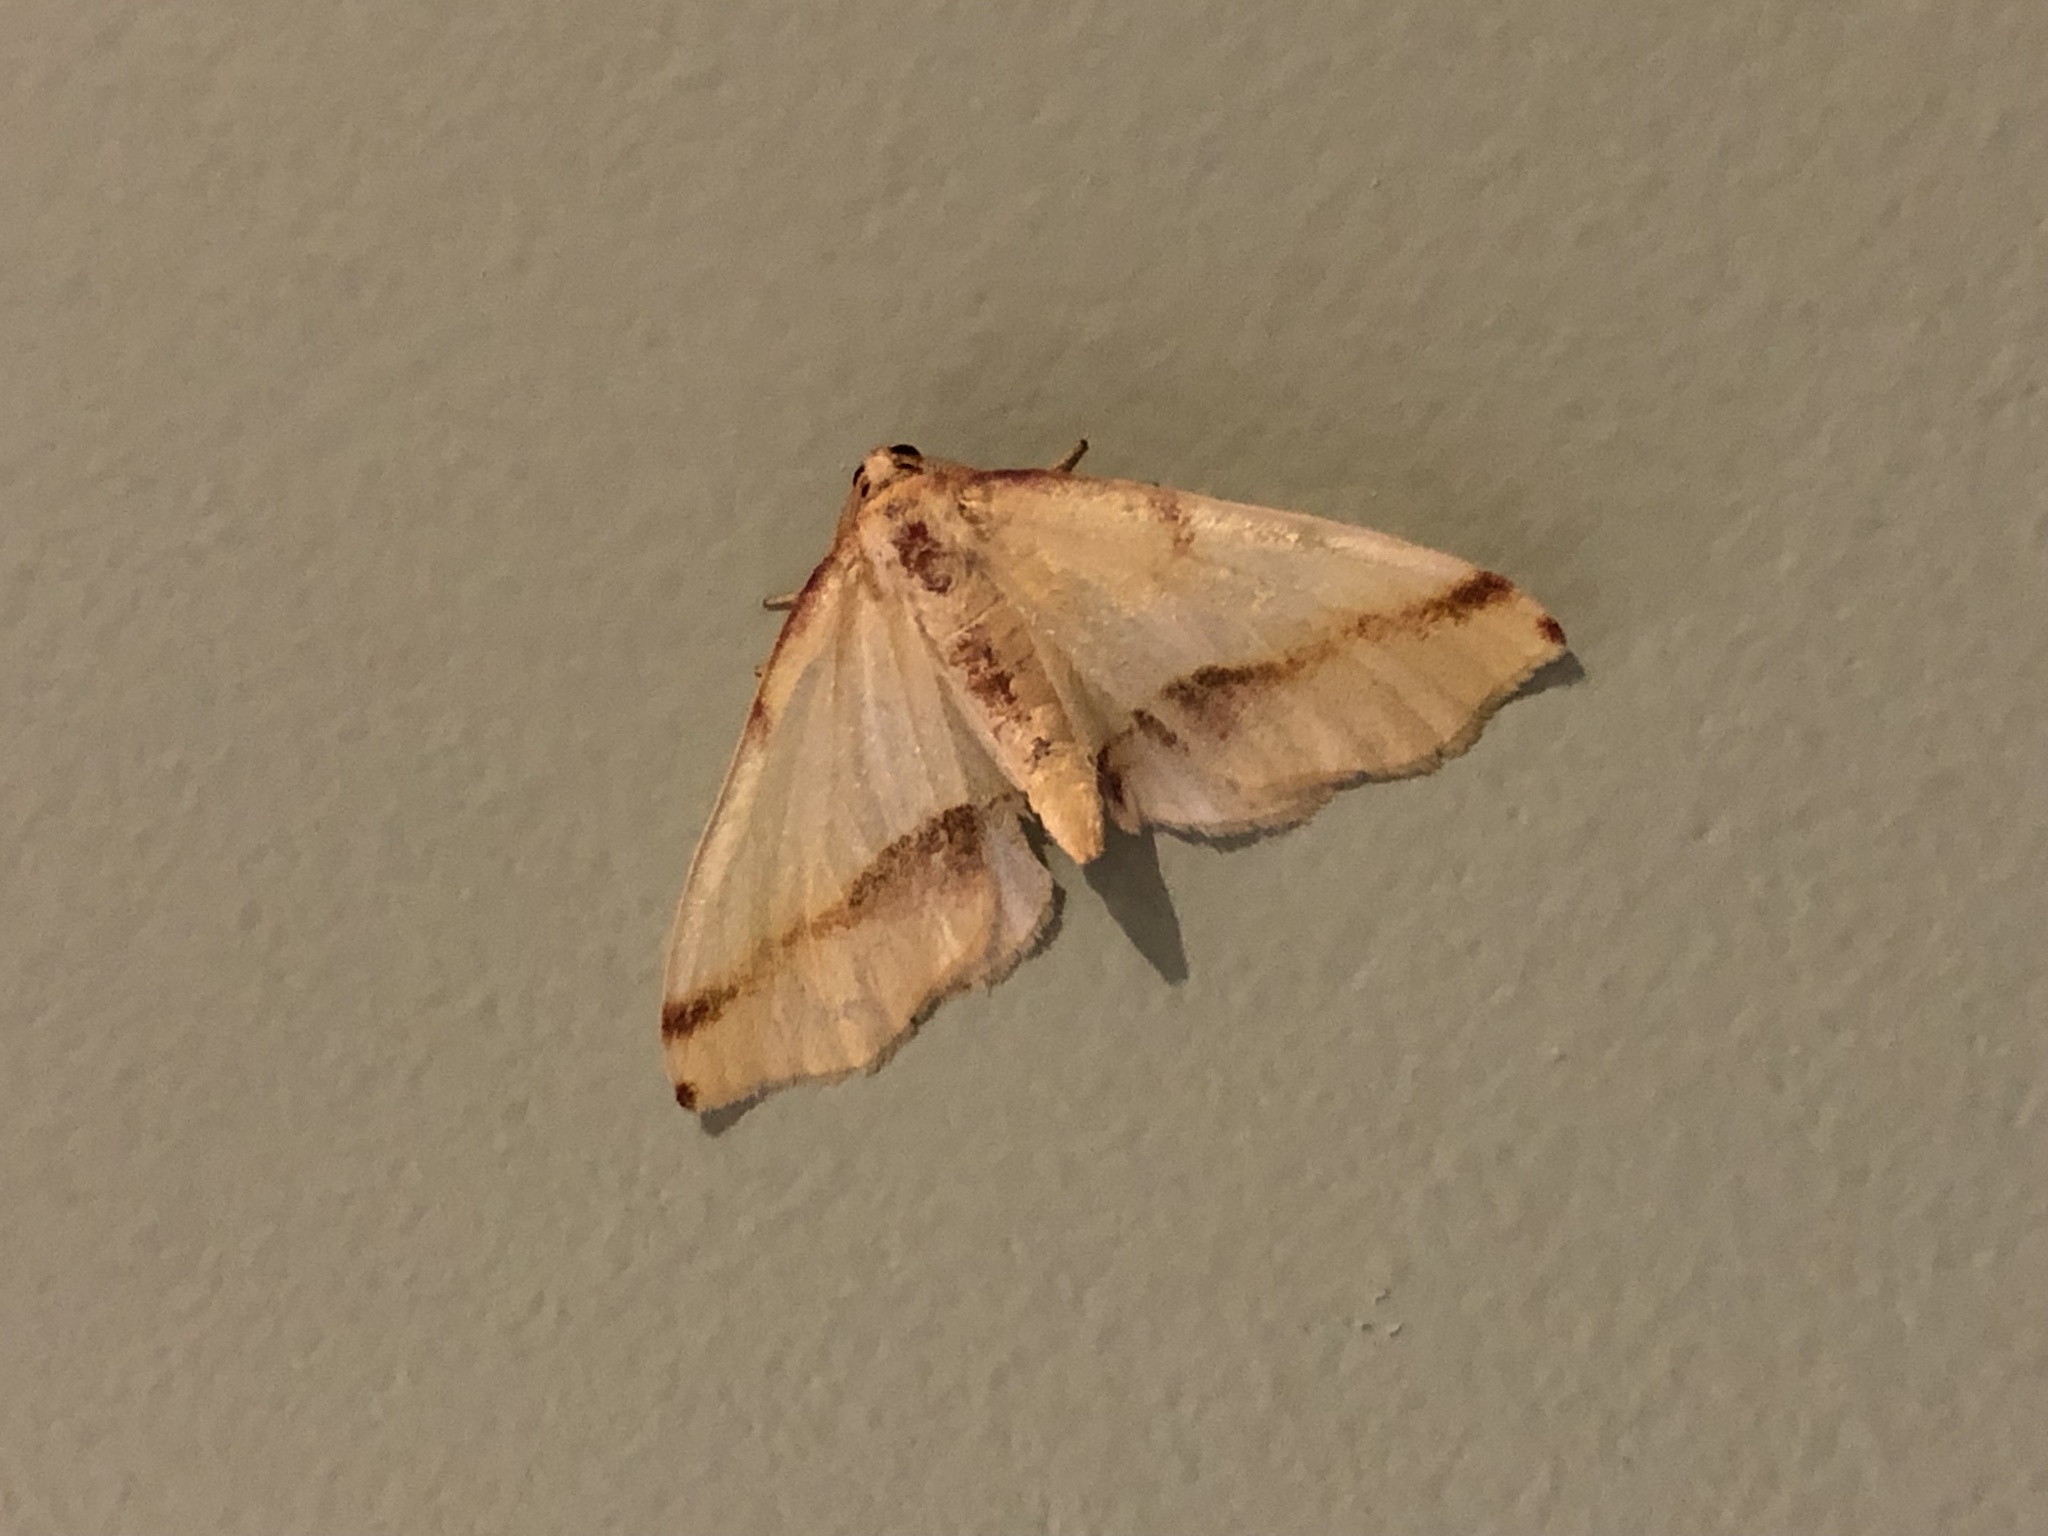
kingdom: Animalia
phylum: Arthropoda
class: Insecta
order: Lepidoptera
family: Geometridae
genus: Plagodis
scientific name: Plagodis serinaria
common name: Lemon plagodis
